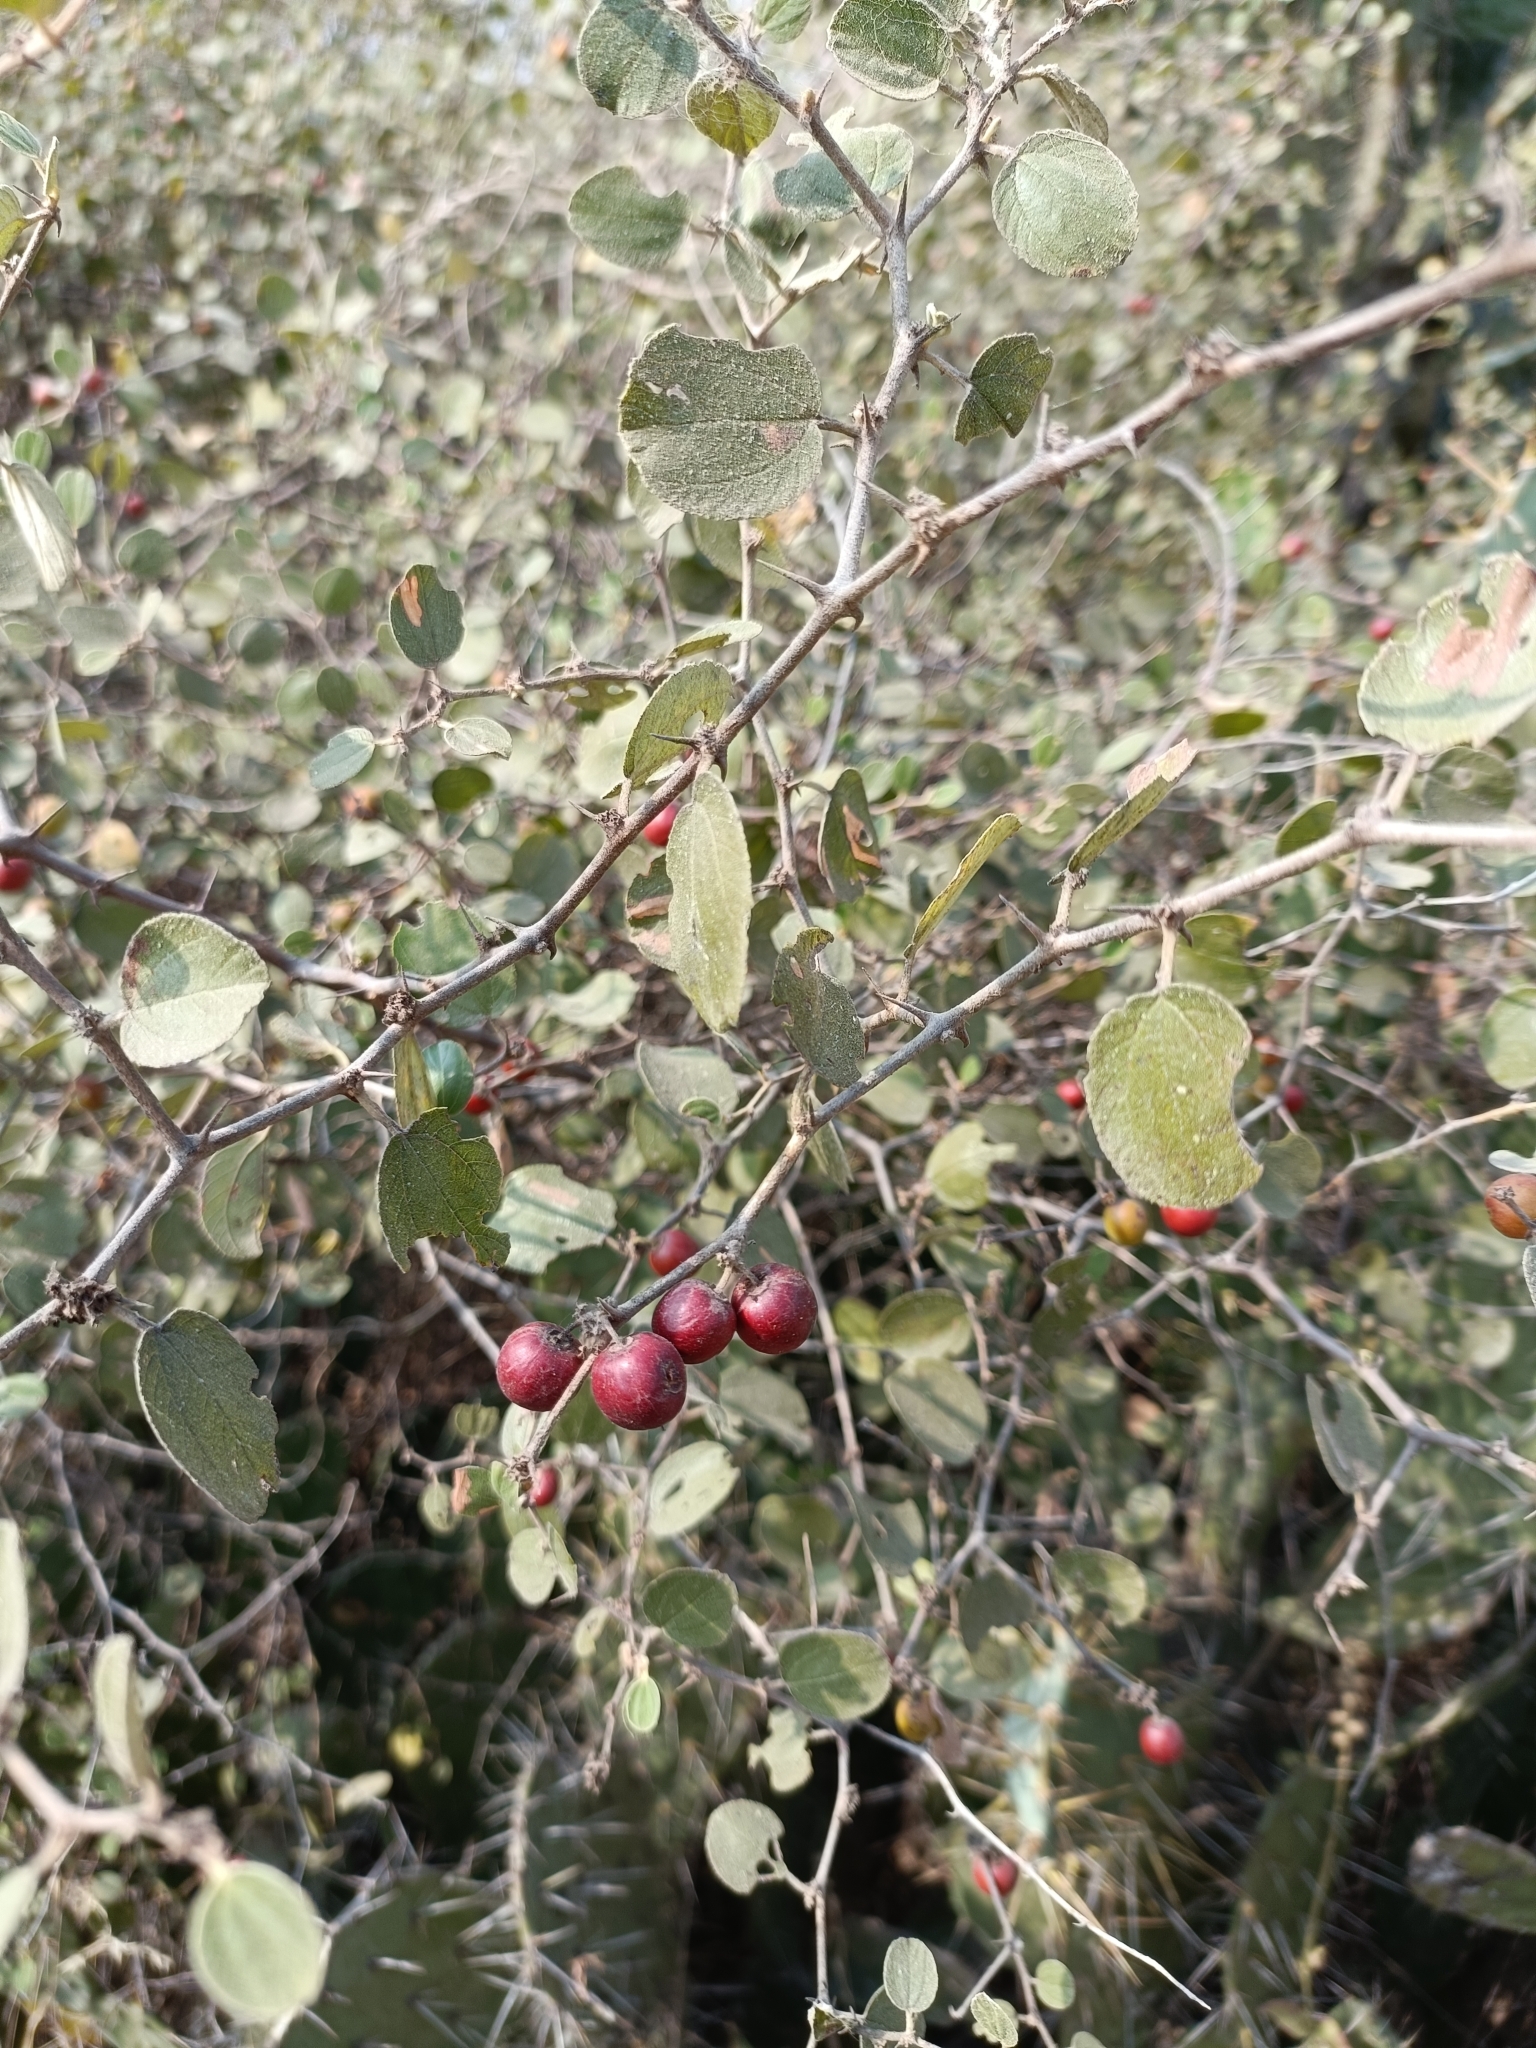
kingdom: Plantae
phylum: Tracheophyta
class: Magnoliopsida
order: Rosales
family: Rhamnaceae
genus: Ziziphus
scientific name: Ziziphus nummularia
